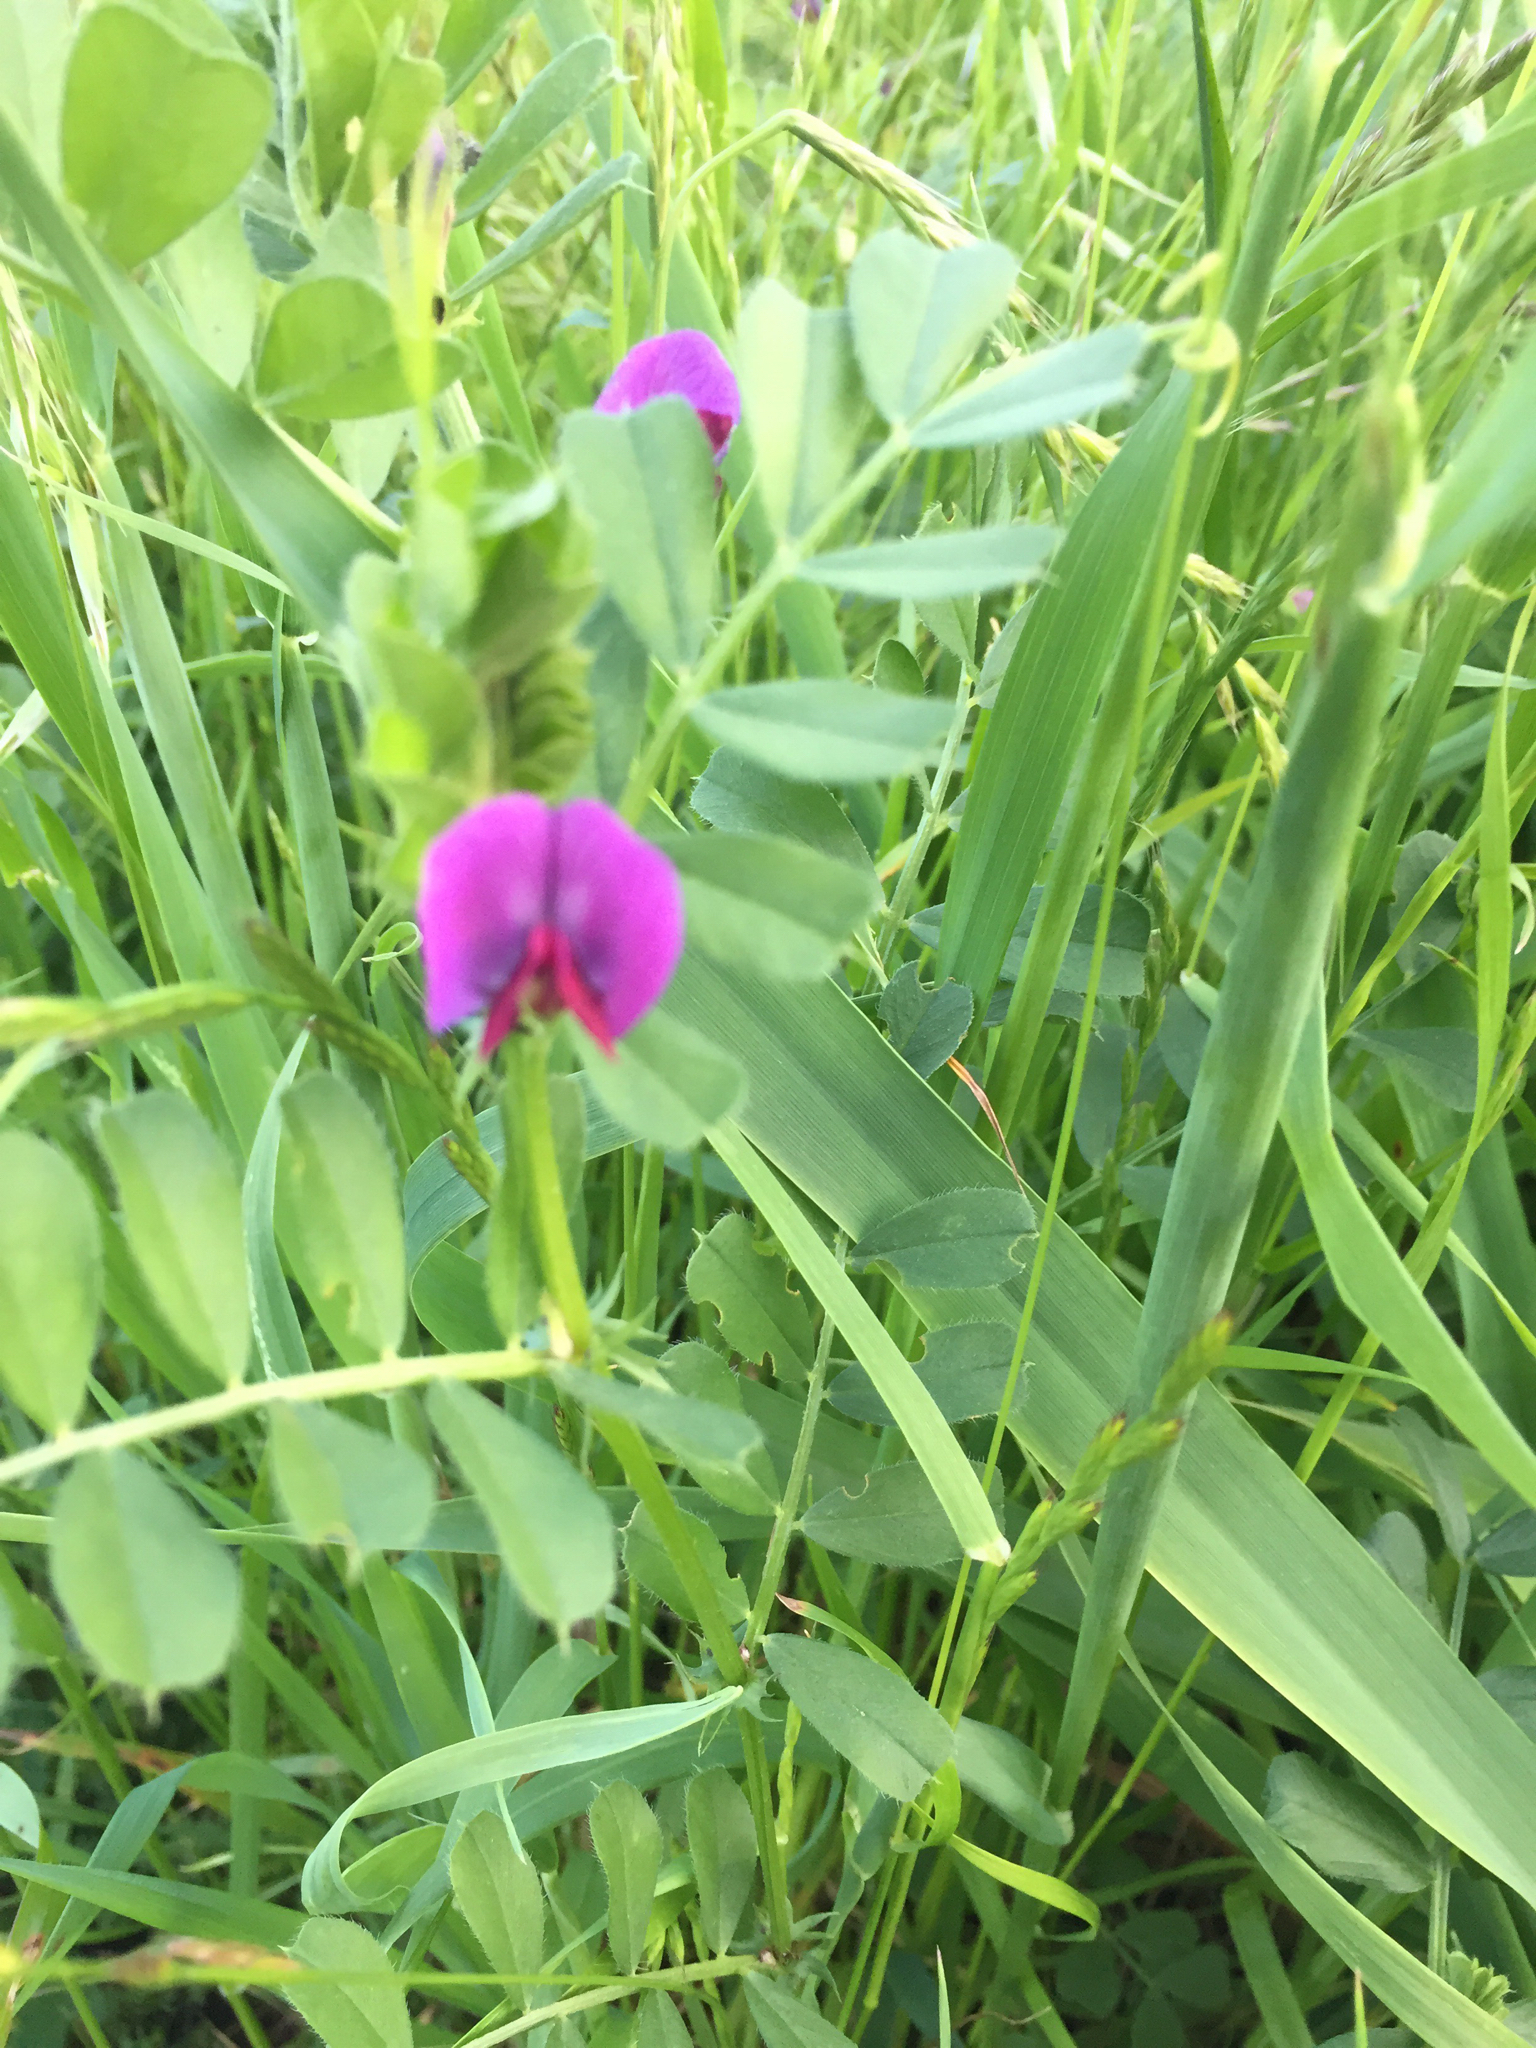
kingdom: Plantae
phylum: Tracheophyta
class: Magnoliopsida
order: Fabales
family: Fabaceae
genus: Vicia
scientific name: Vicia sativa
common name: Garden vetch
